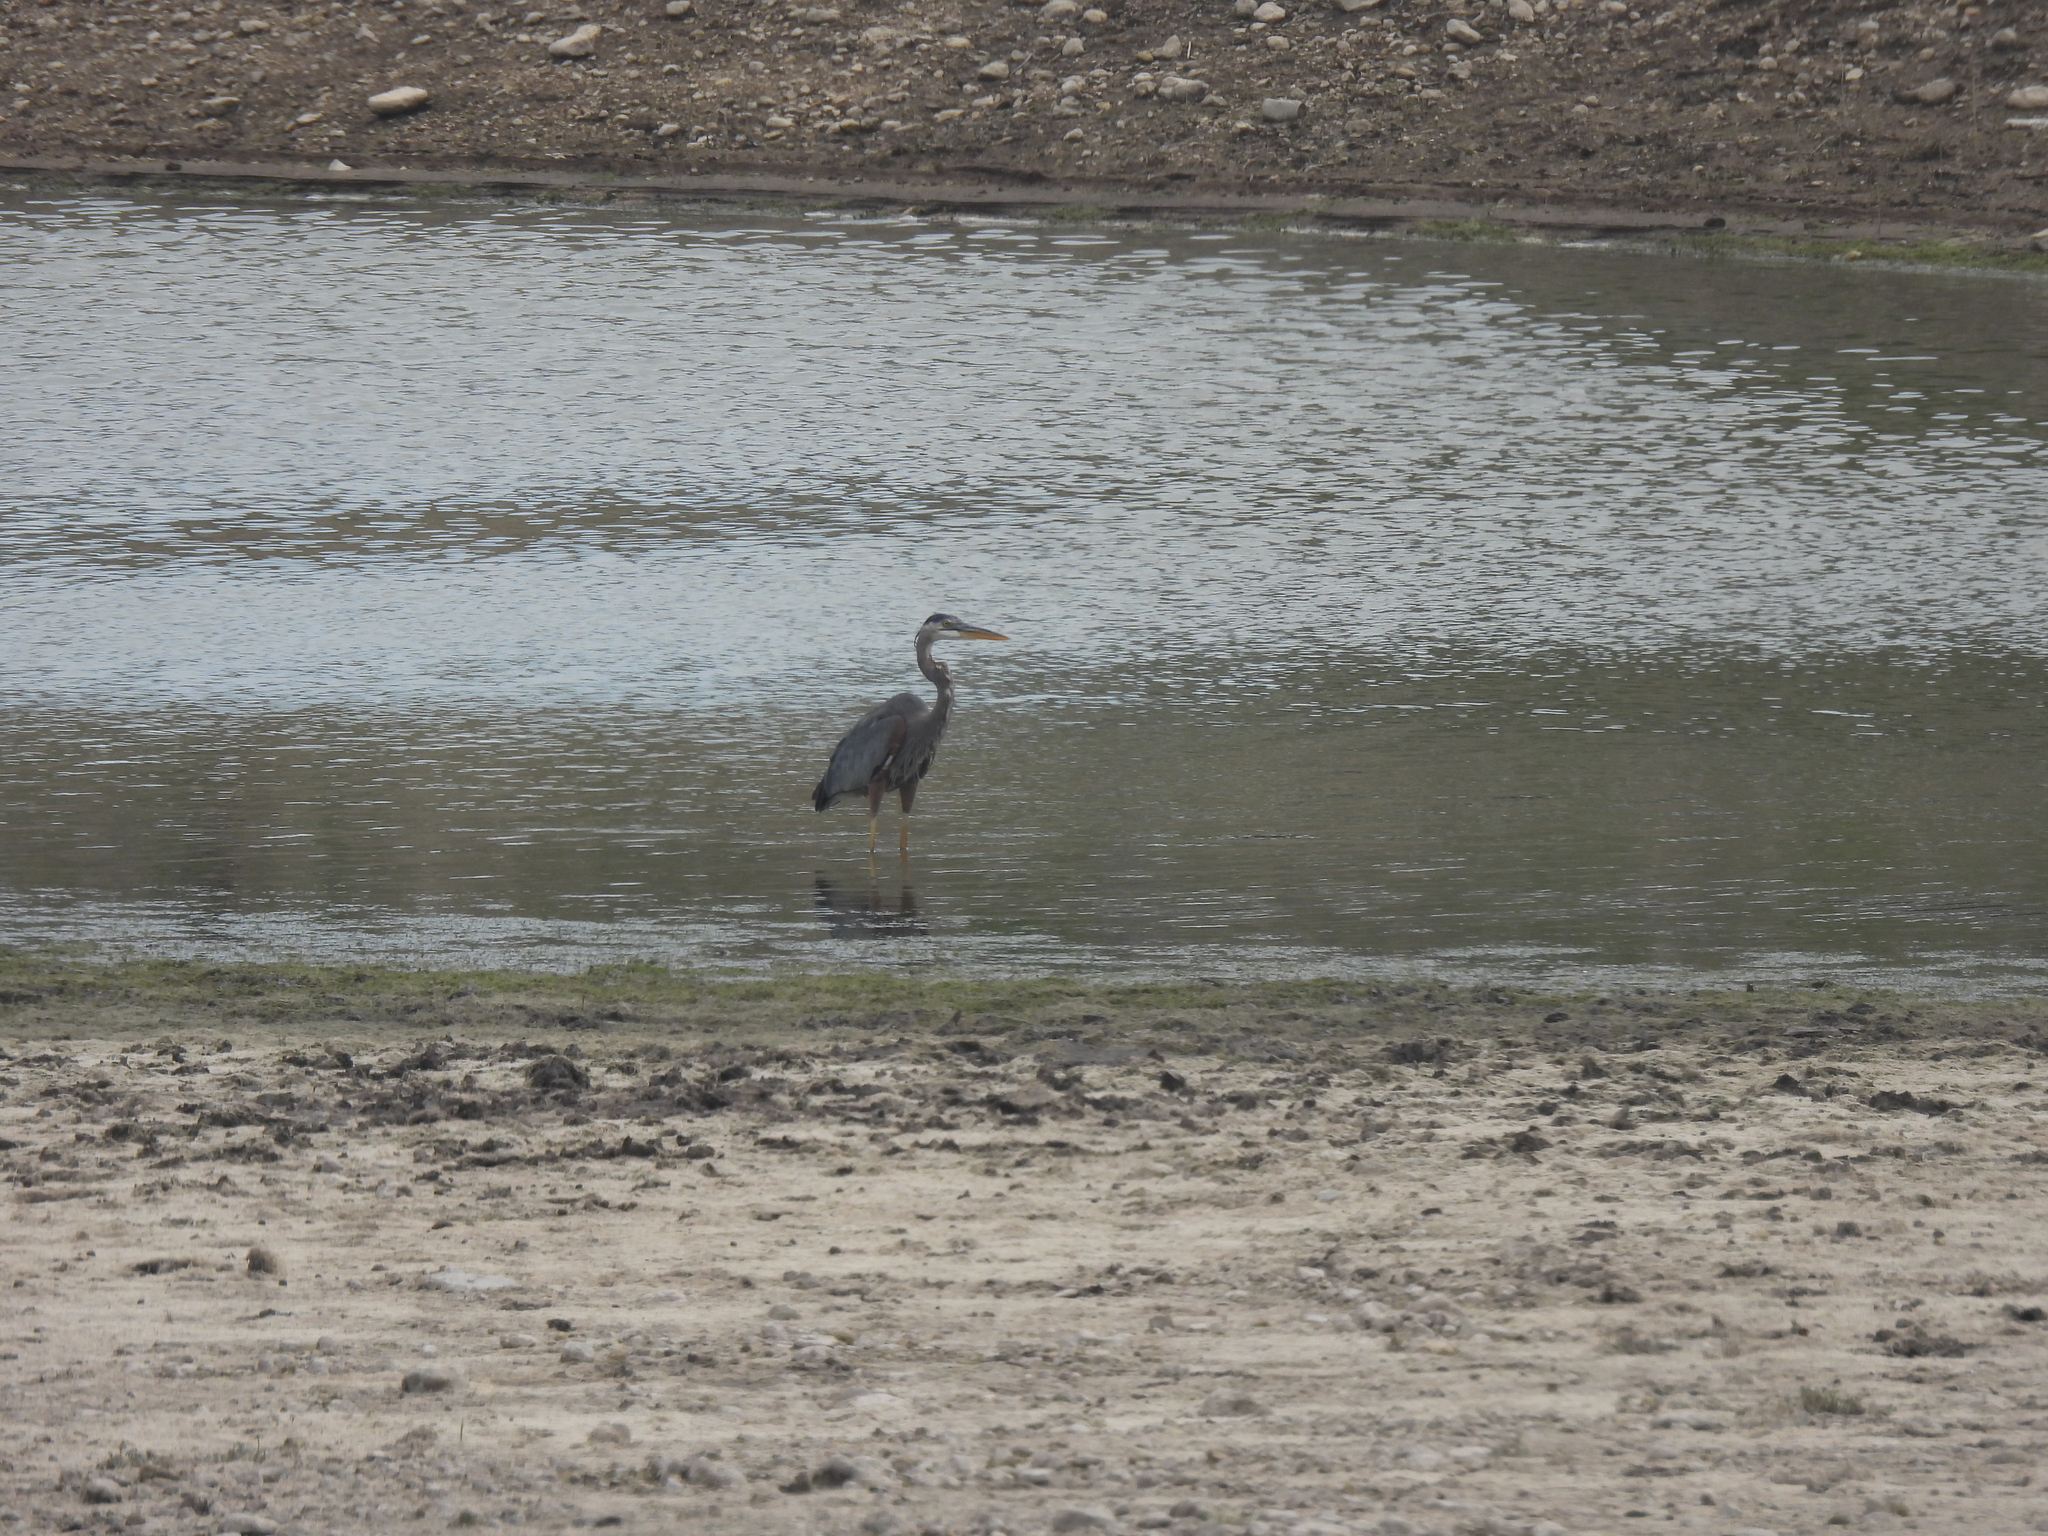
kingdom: Animalia
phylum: Chordata
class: Aves
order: Pelecaniformes
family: Ardeidae
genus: Ardea
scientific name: Ardea herodias
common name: Great blue heron
